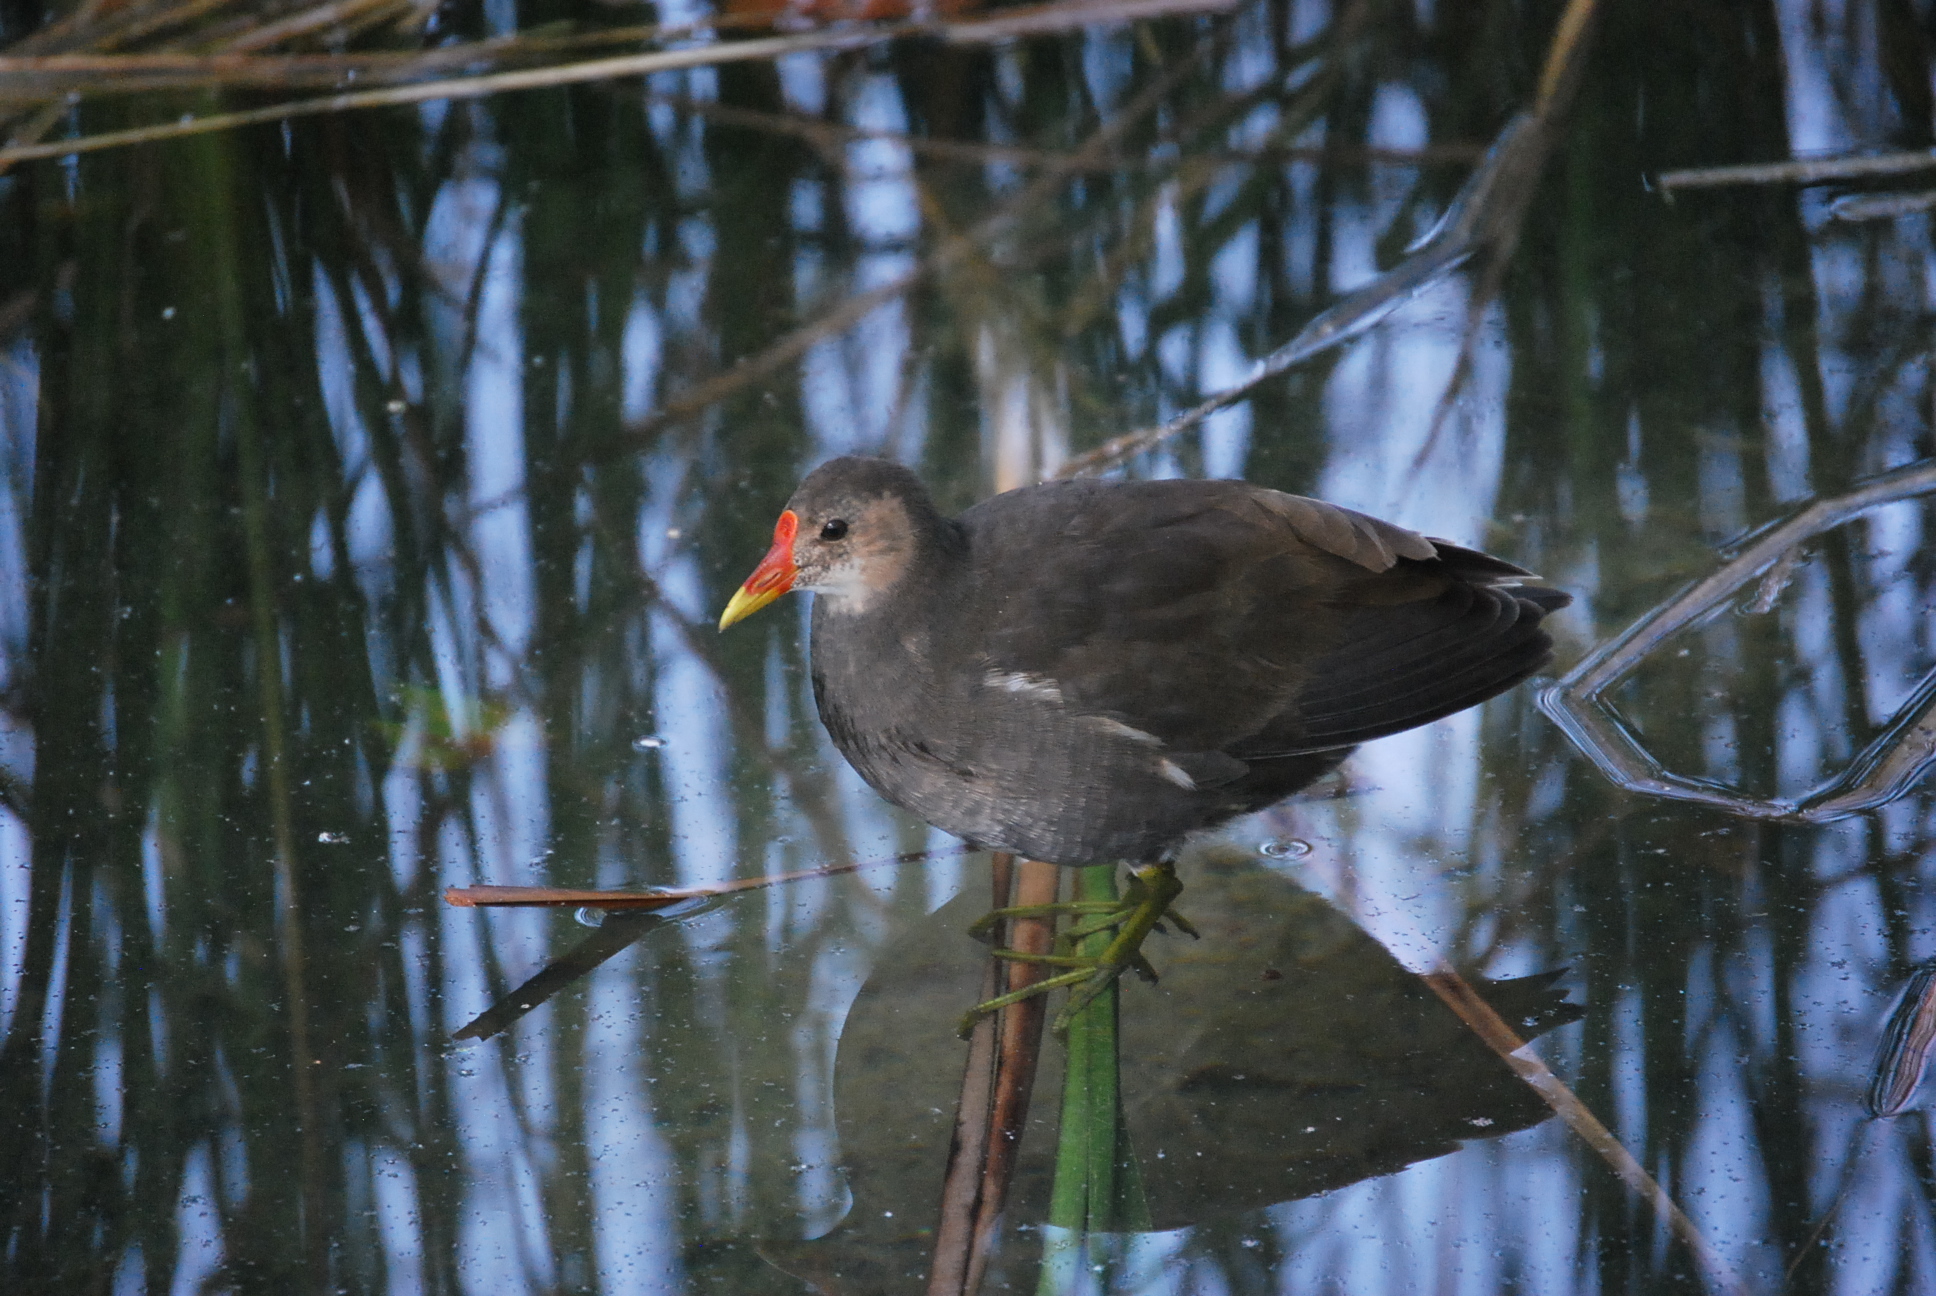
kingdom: Animalia
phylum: Chordata
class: Aves
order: Gruiformes
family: Rallidae
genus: Gallinula
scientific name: Gallinula chloropus
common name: Common moorhen
